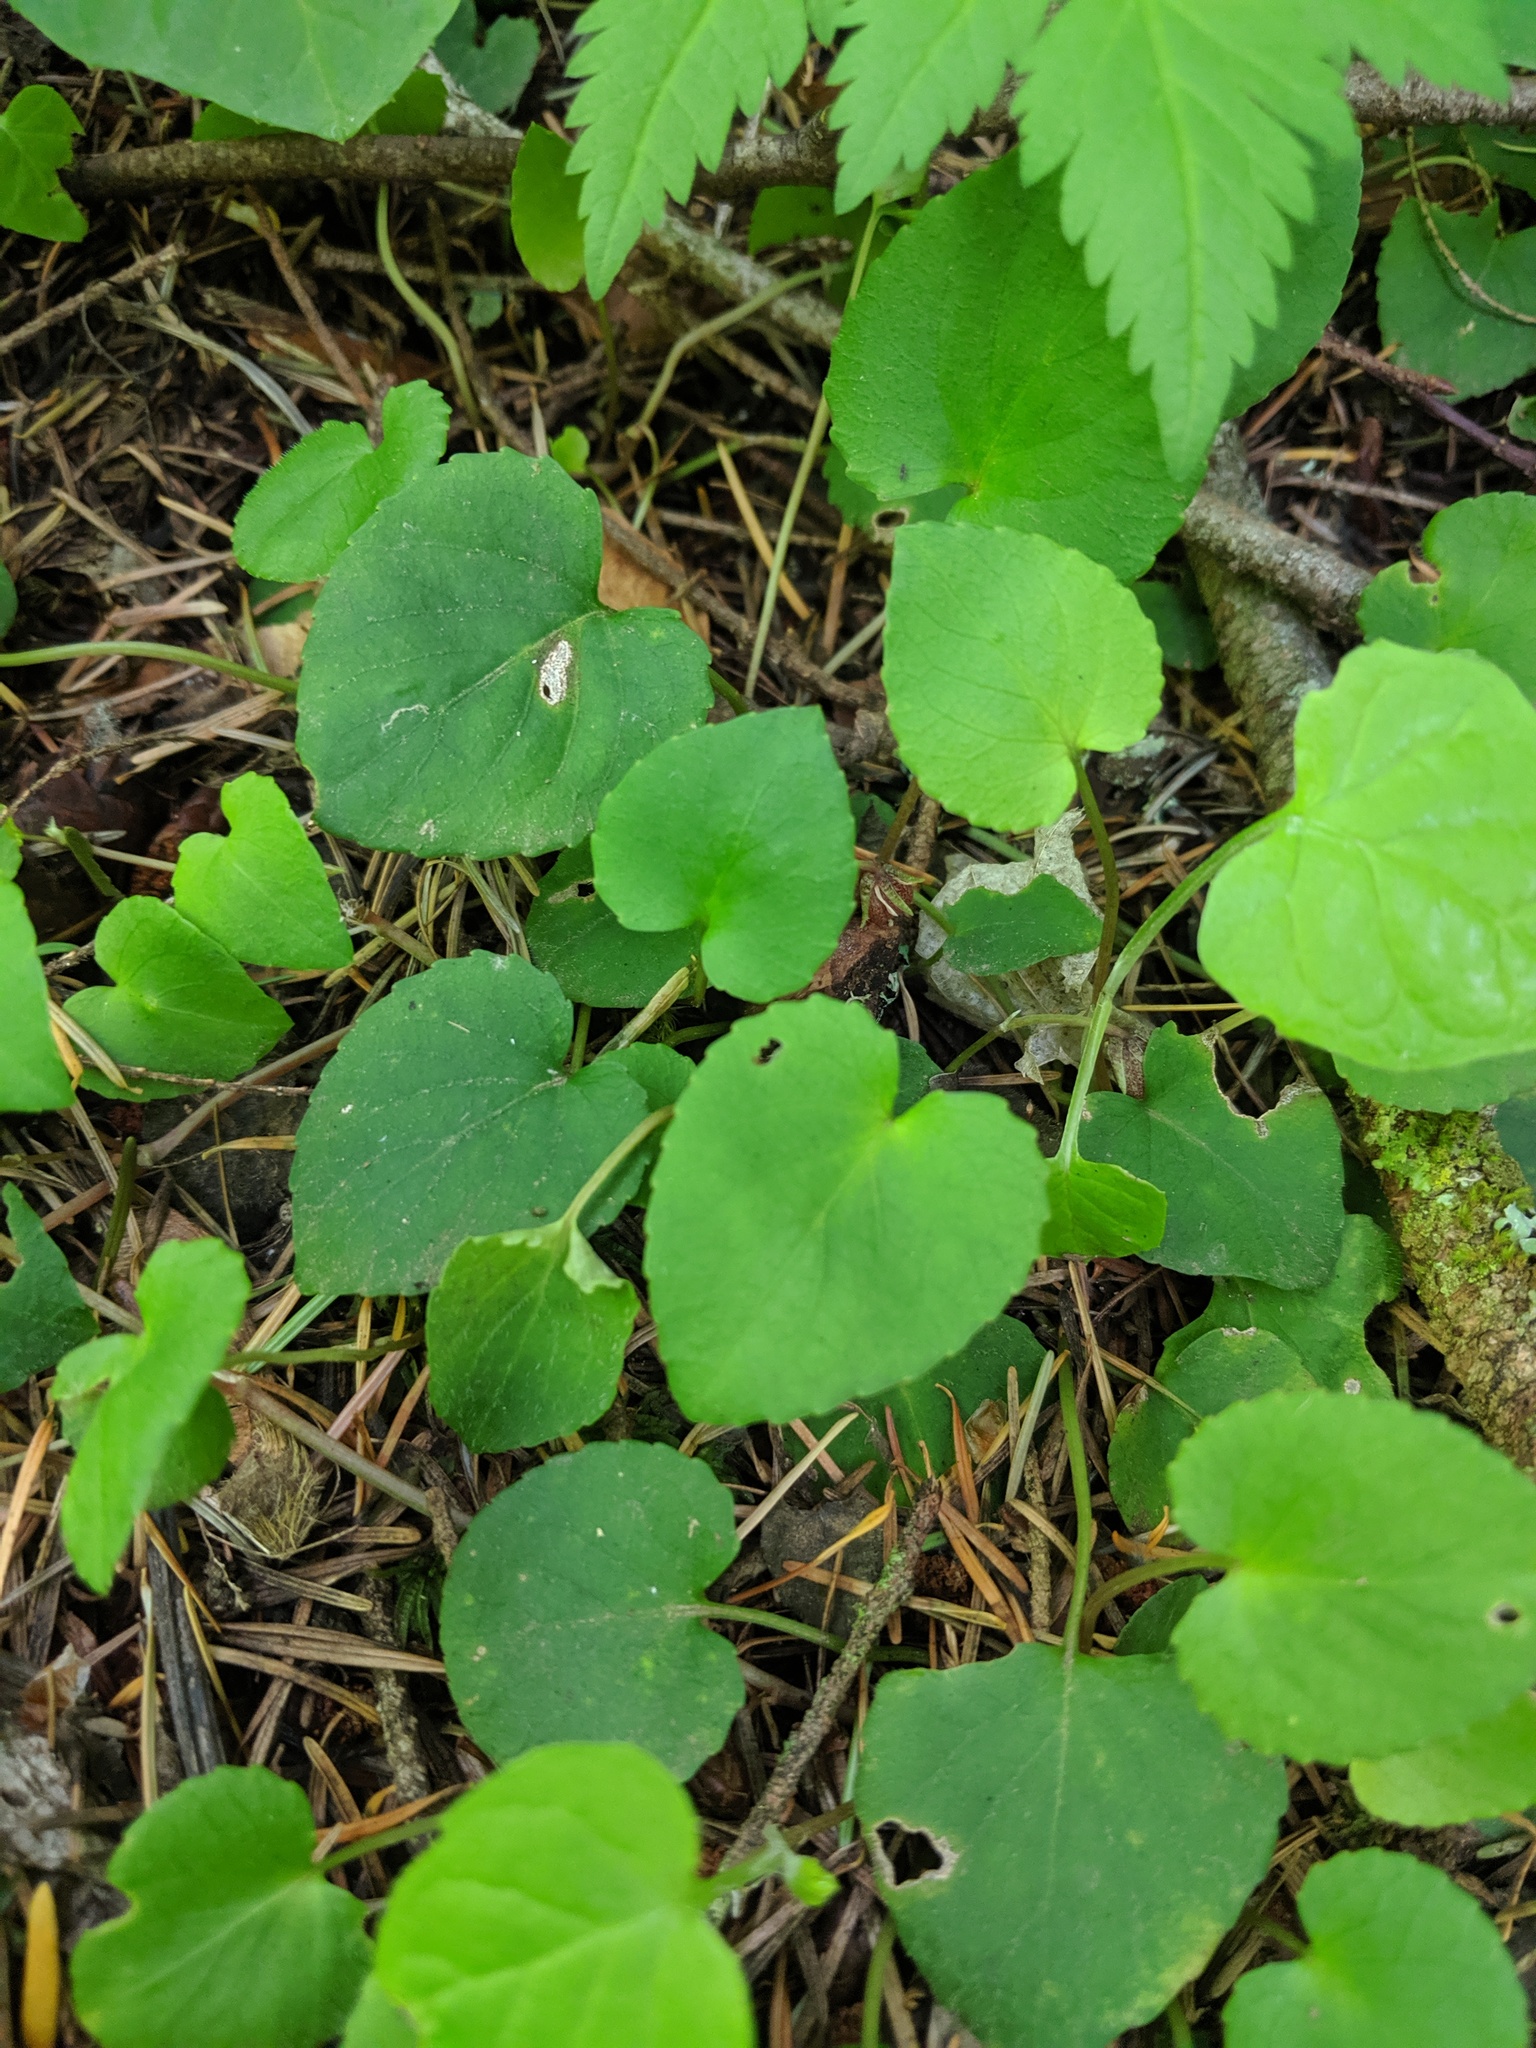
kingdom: Plantae
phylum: Tracheophyta
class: Magnoliopsida
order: Malpighiales
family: Violaceae
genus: Viola
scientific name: Viola sempervirens
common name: Evergreen violet
